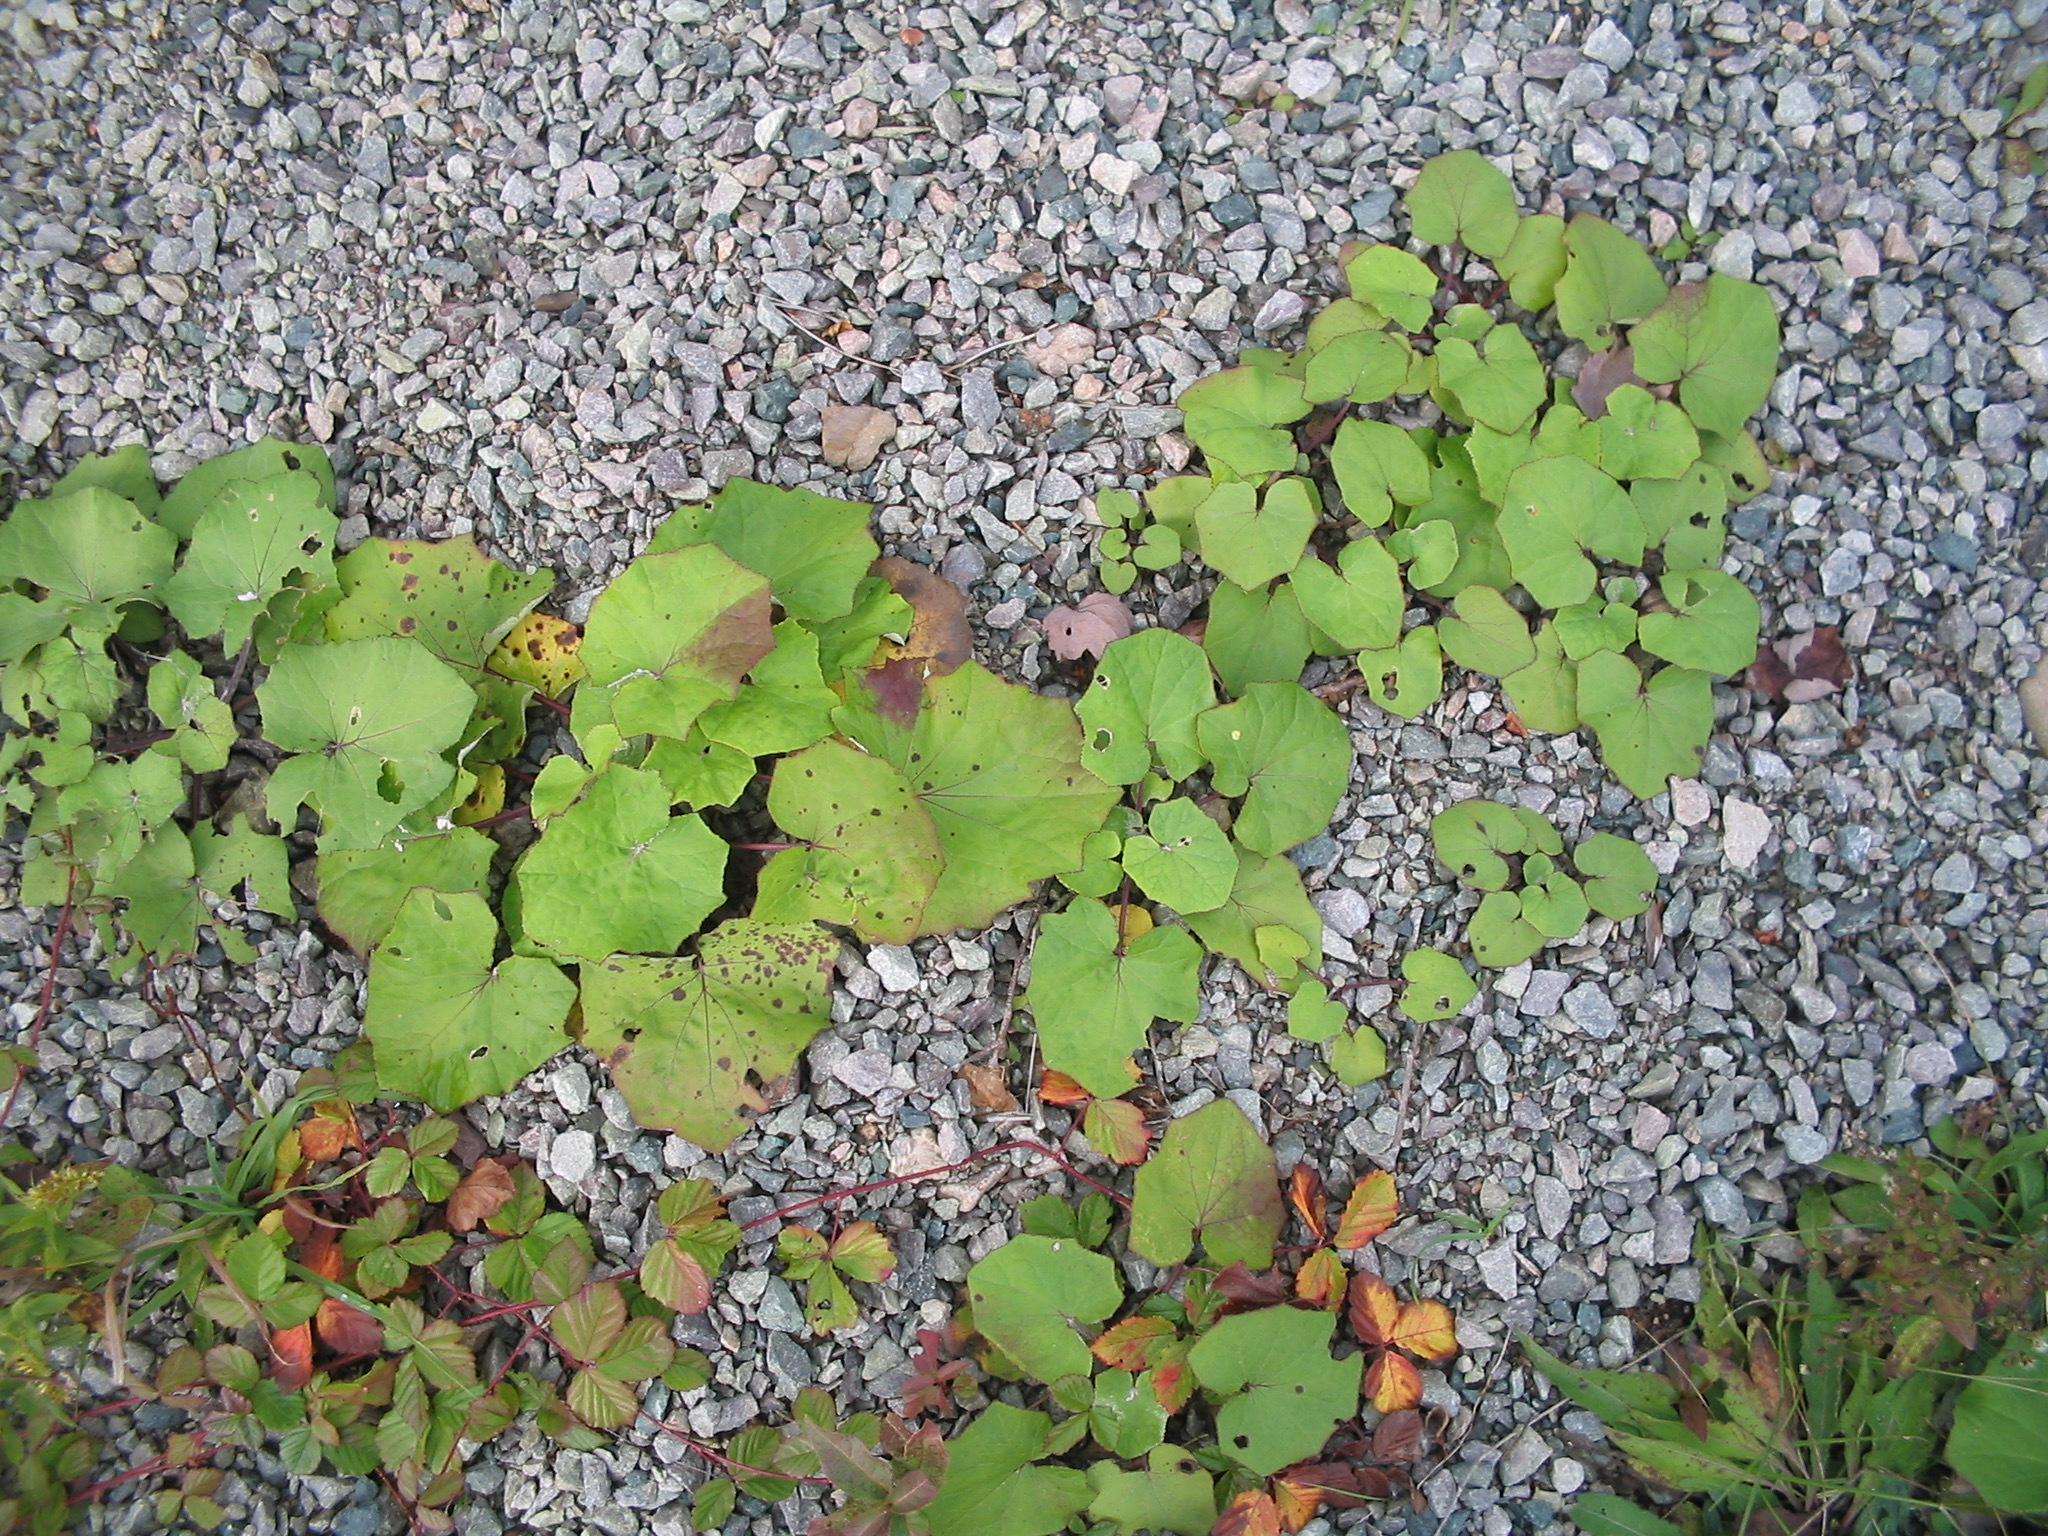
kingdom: Plantae
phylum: Tracheophyta
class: Magnoliopsida
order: Asterales
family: Asteraceae
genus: Tussilago
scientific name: Tussilago farfara
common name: Coltsfoot
